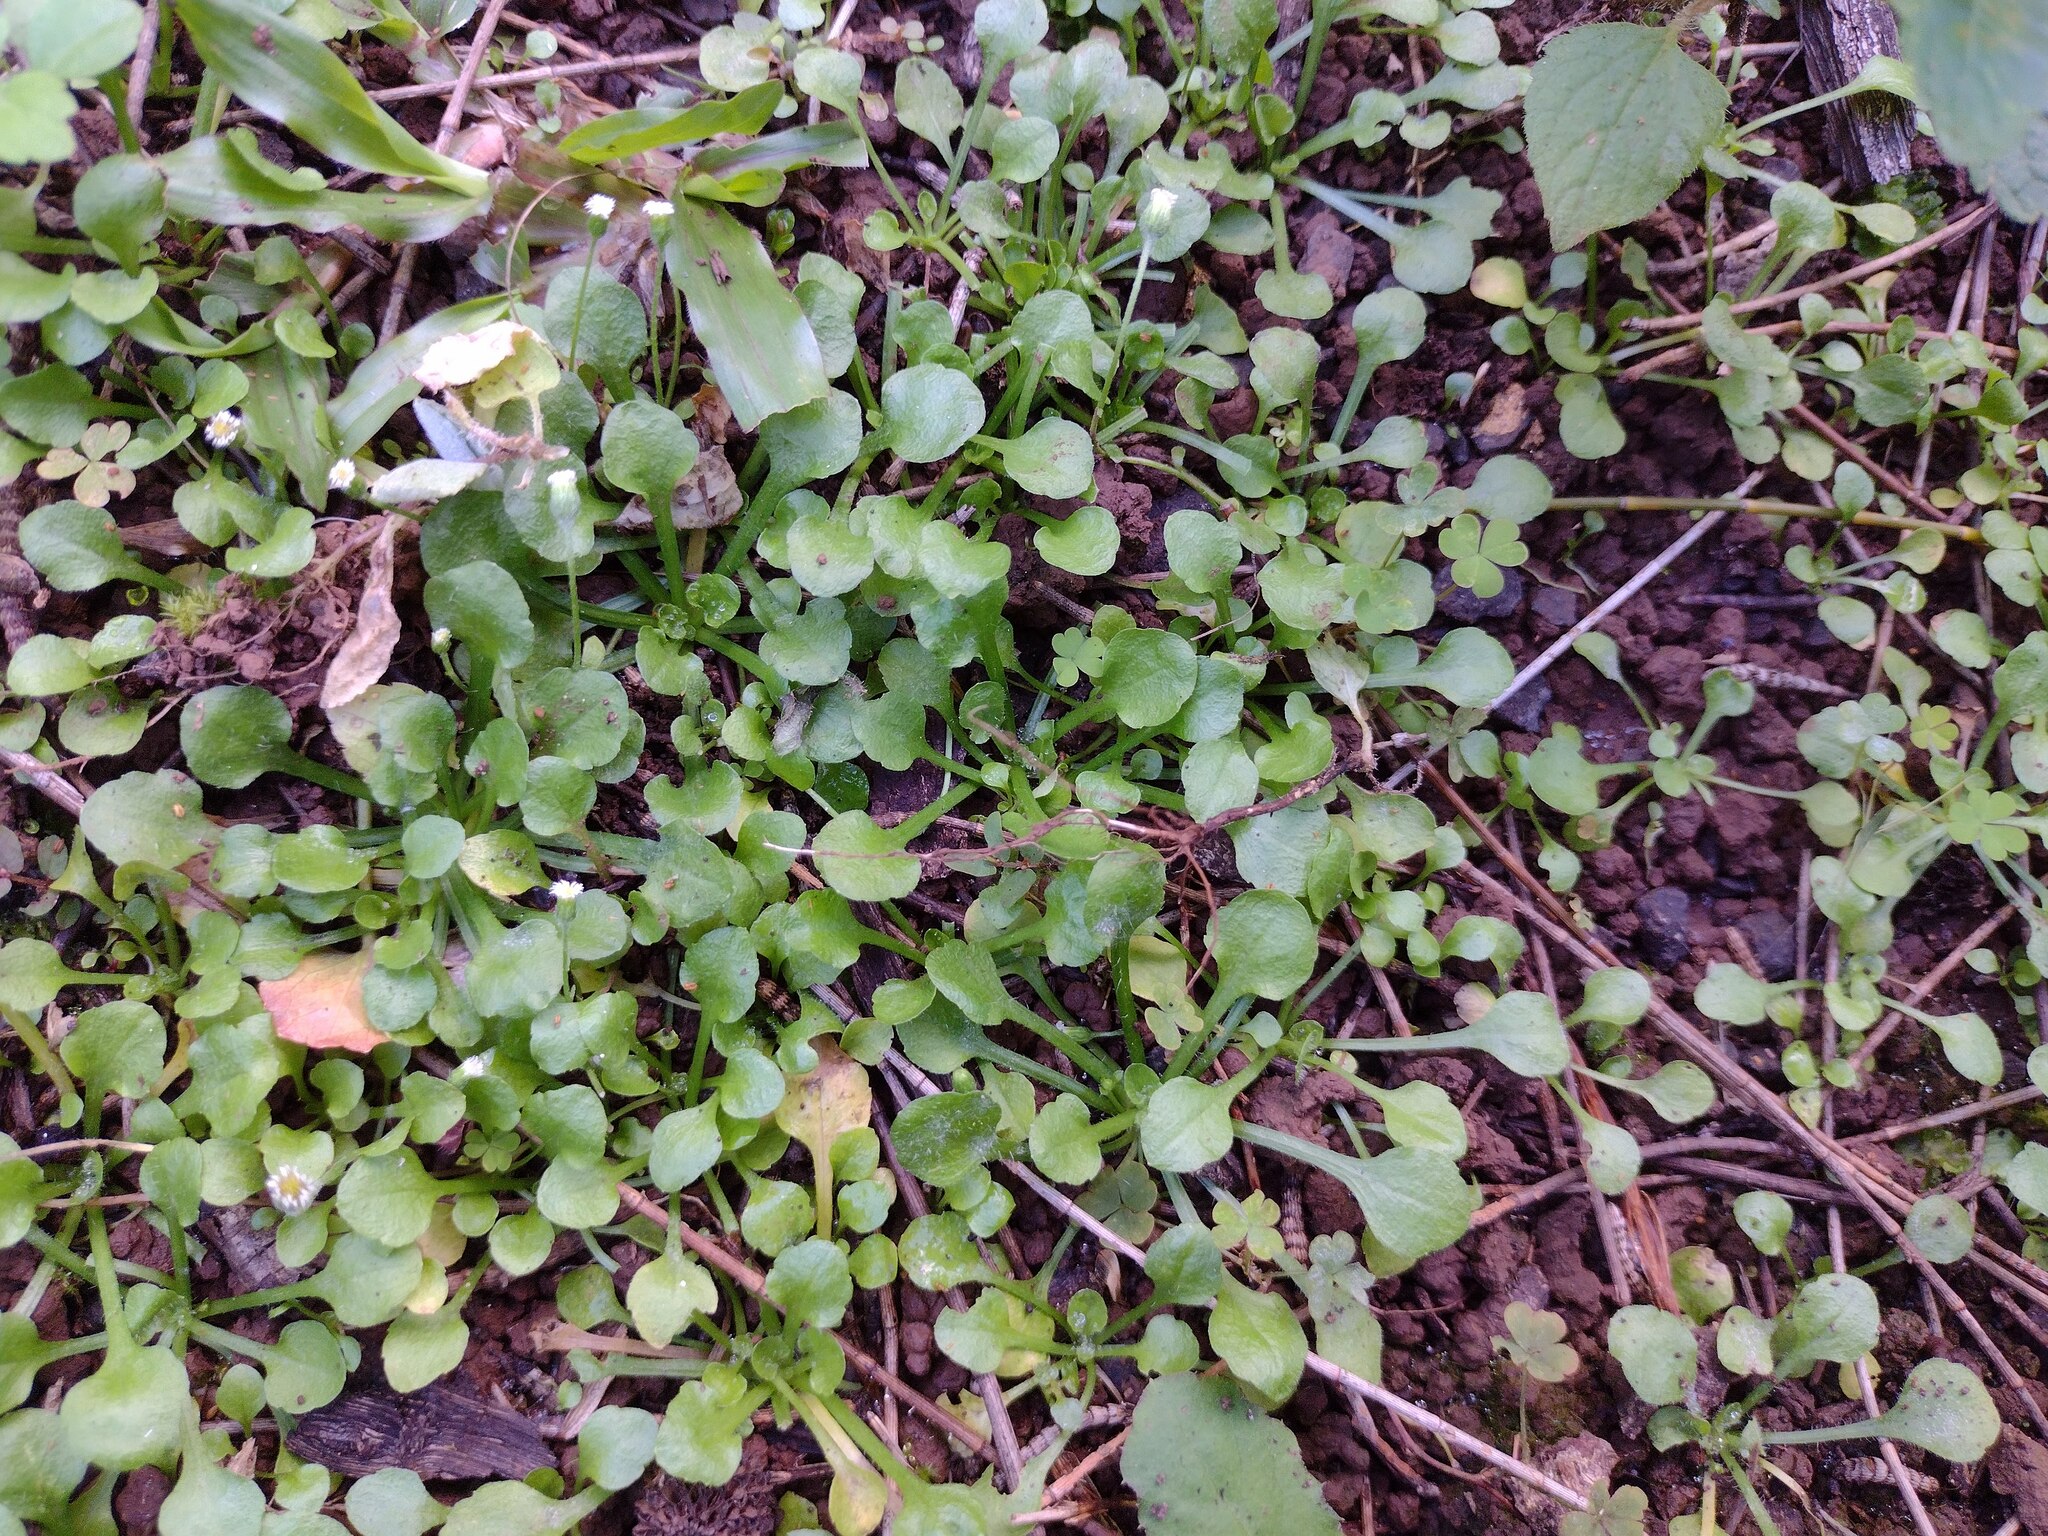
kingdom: Plantae
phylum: Tracheophyta
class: Magnoliopsida
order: Asterales
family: Asteraceae
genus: Erigeron
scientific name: Erigeron bellioides
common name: Bellorita
